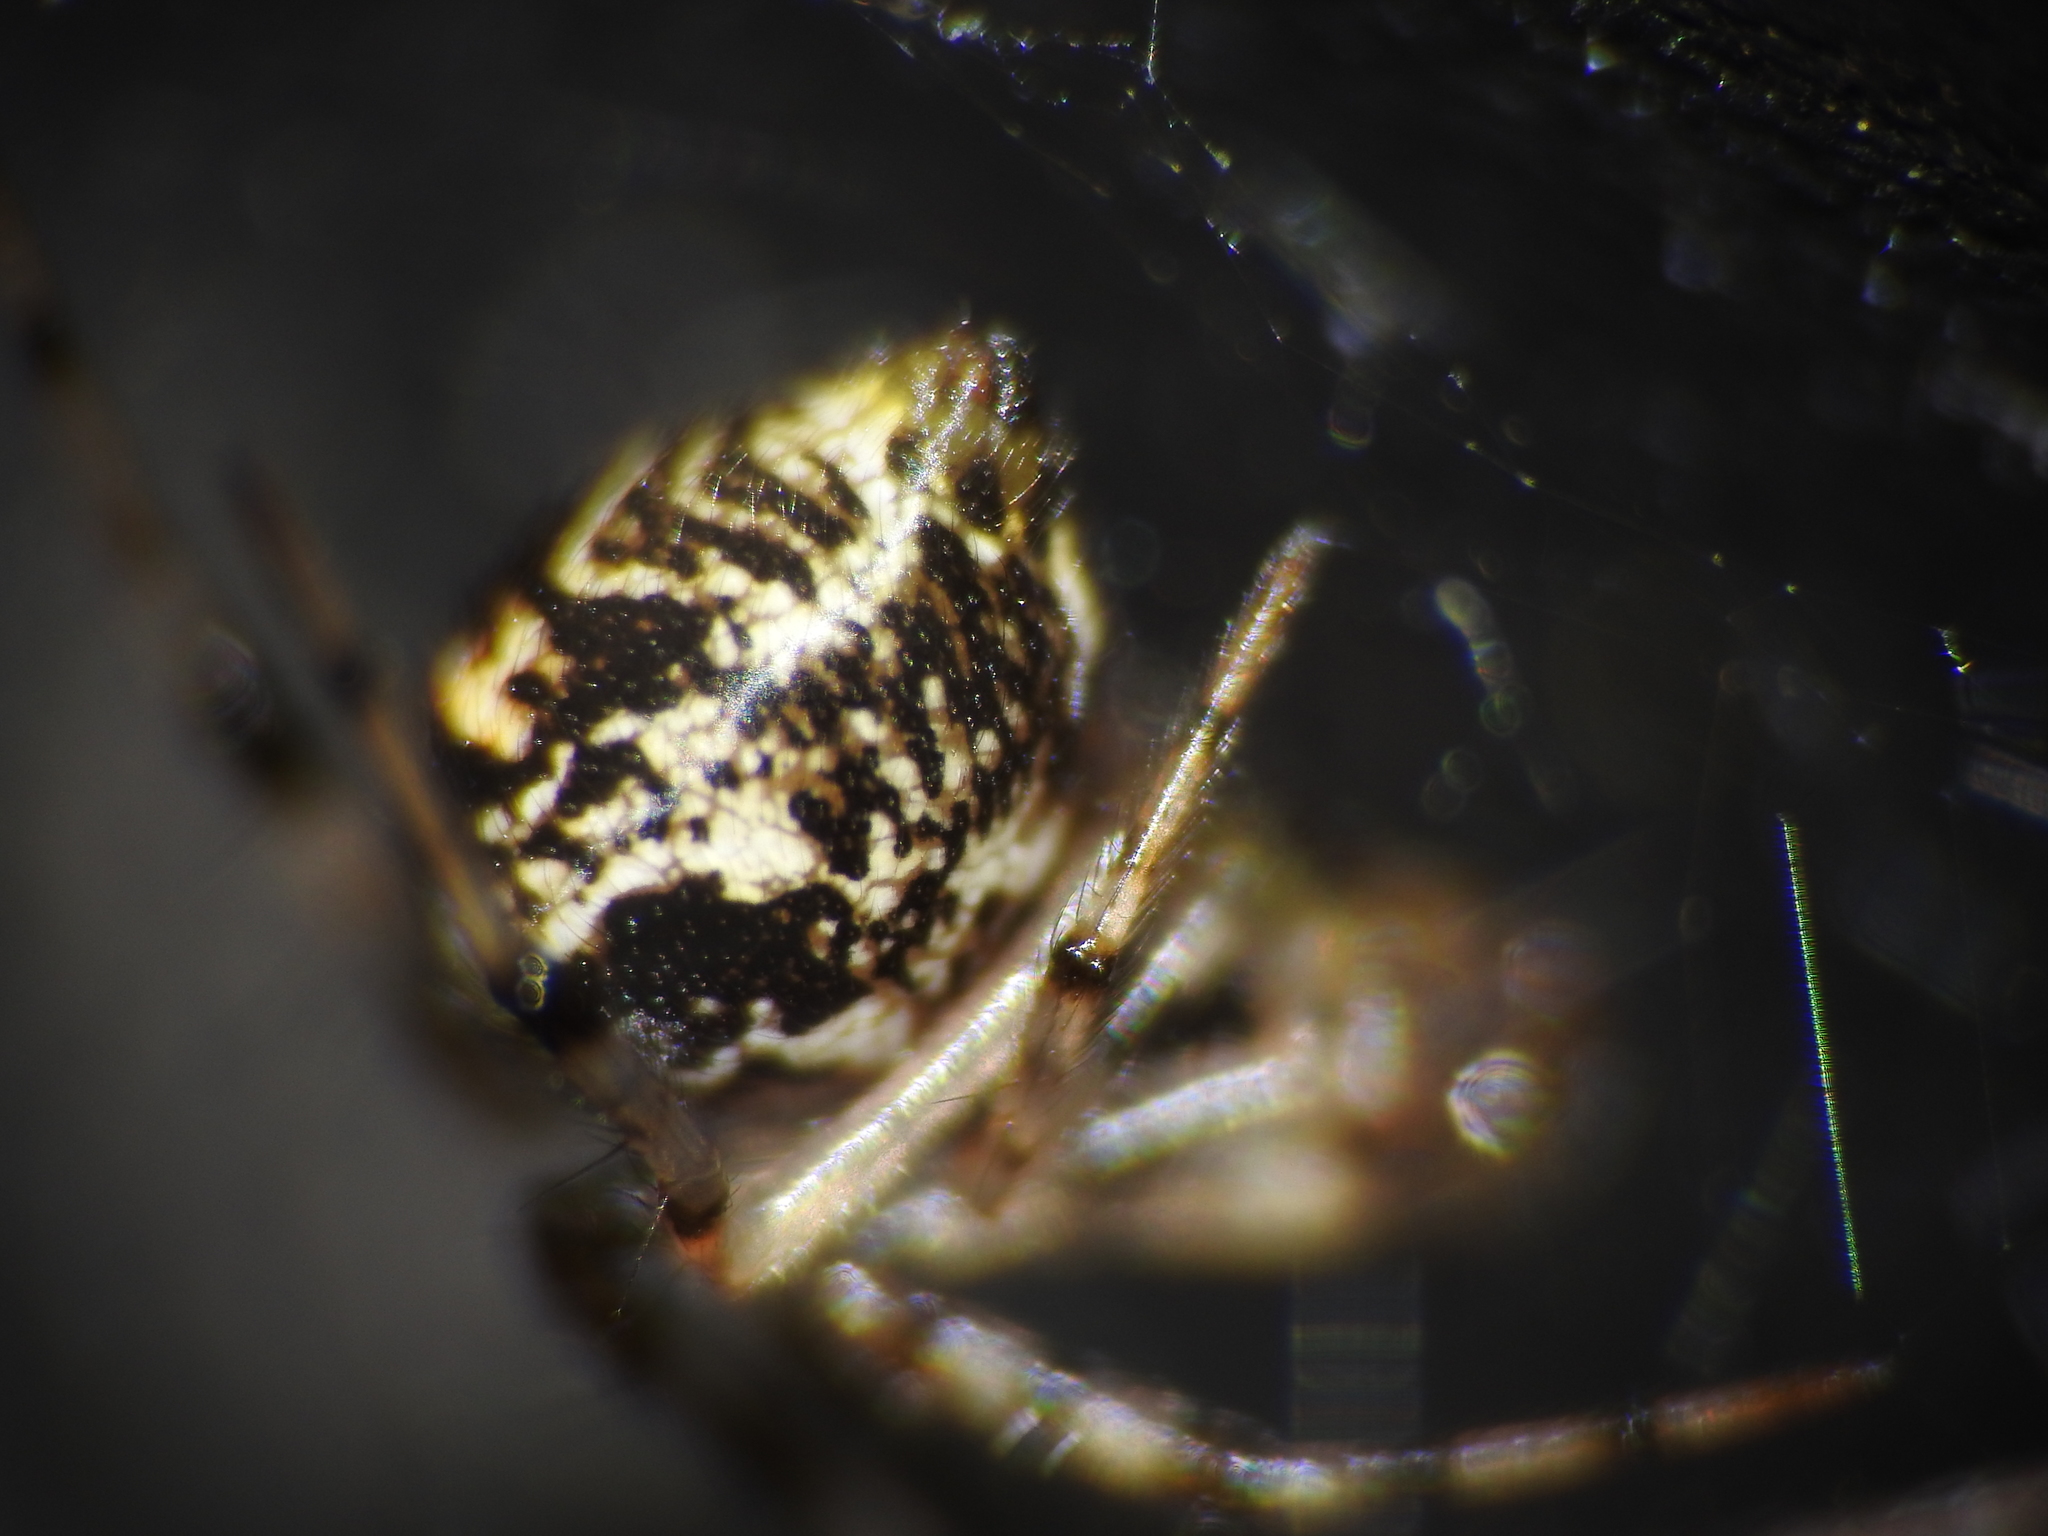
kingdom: Animalia
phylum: Arthropoda
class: Arachnida
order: Araneae
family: Theridiidae
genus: Parasteatoda
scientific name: Parasteatoda tepidariorum
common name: Common house spider
